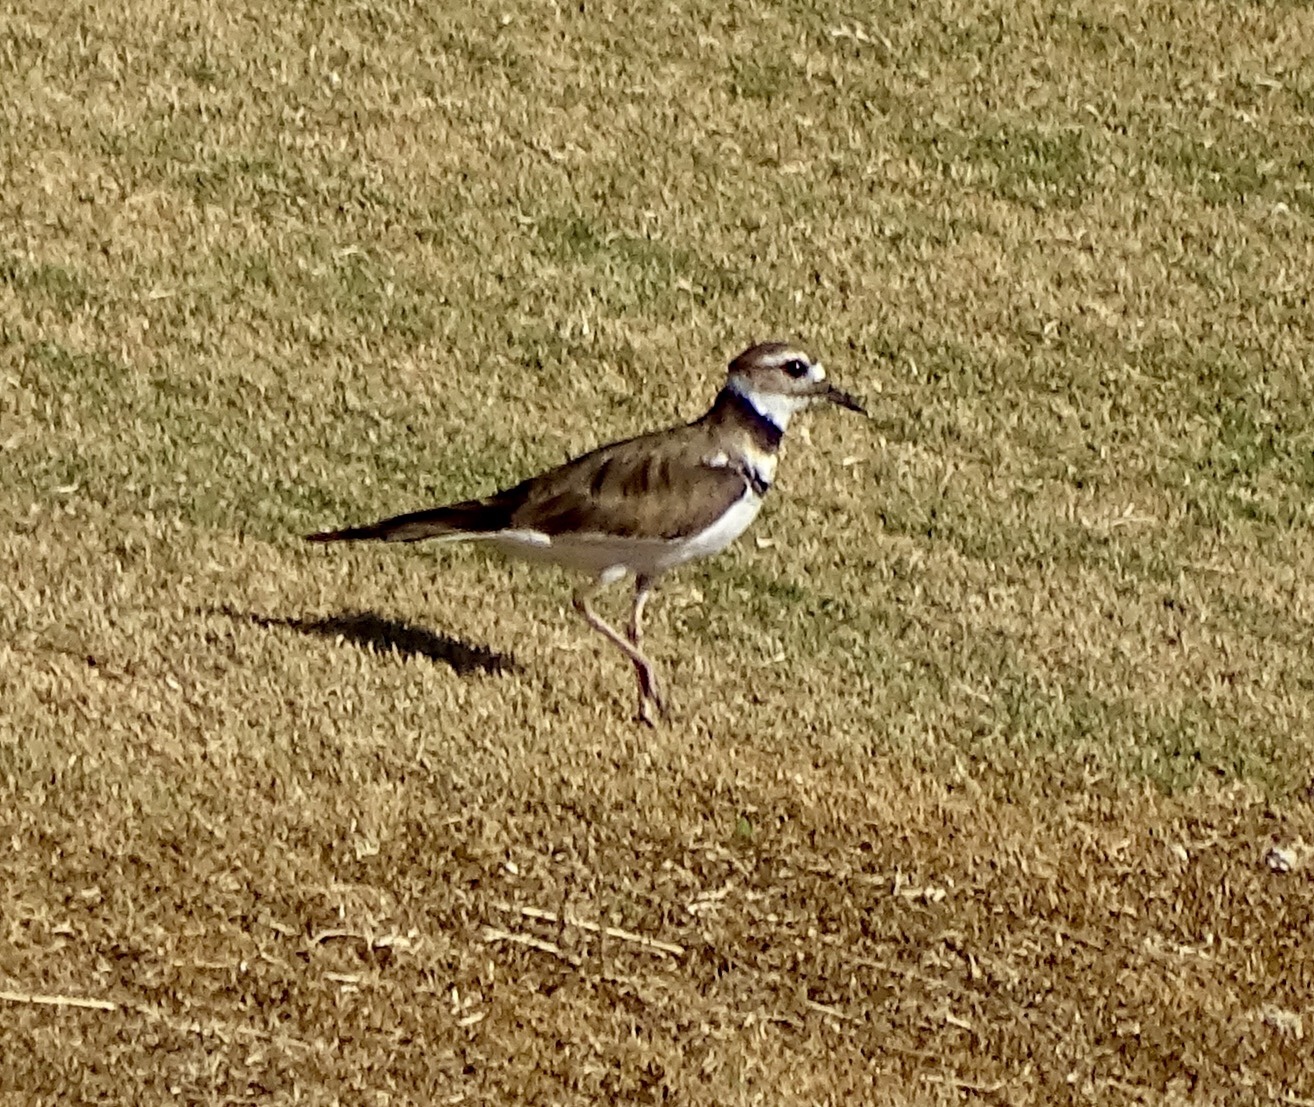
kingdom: Animalia
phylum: Chordata
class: Aves
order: Charadriiformes
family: Charadriidae
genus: Charadrius
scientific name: Charadrius vociferus
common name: Killdeer
